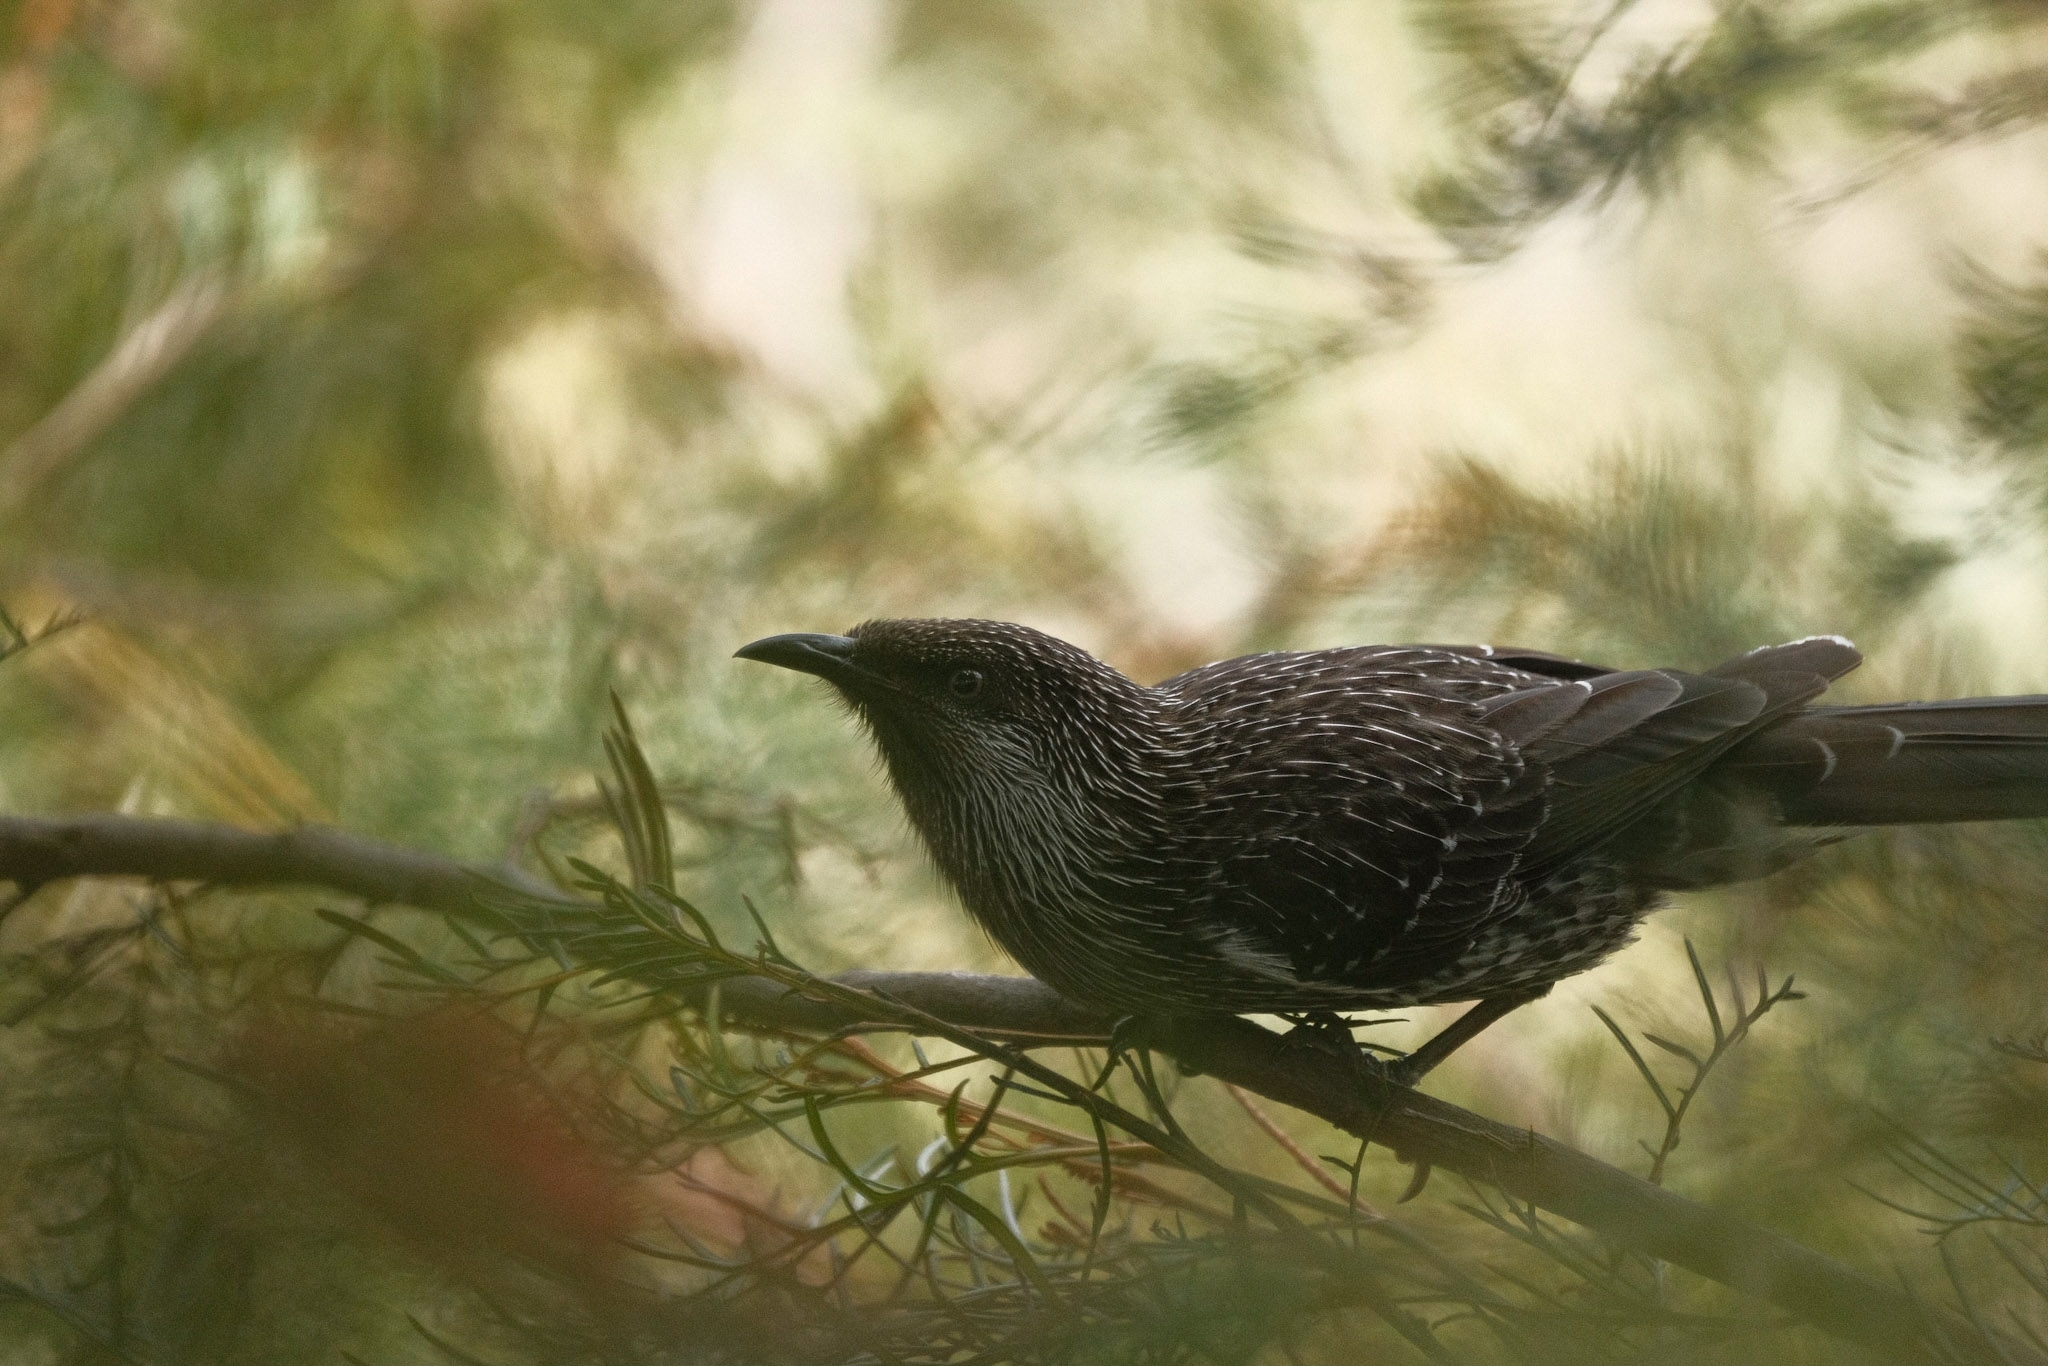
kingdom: Animalia
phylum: Chordata
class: Aves
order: Passeriformes
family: Meliphagidae
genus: Anthochaera
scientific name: Anthochaera chrysoptera
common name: Little wattlebird
